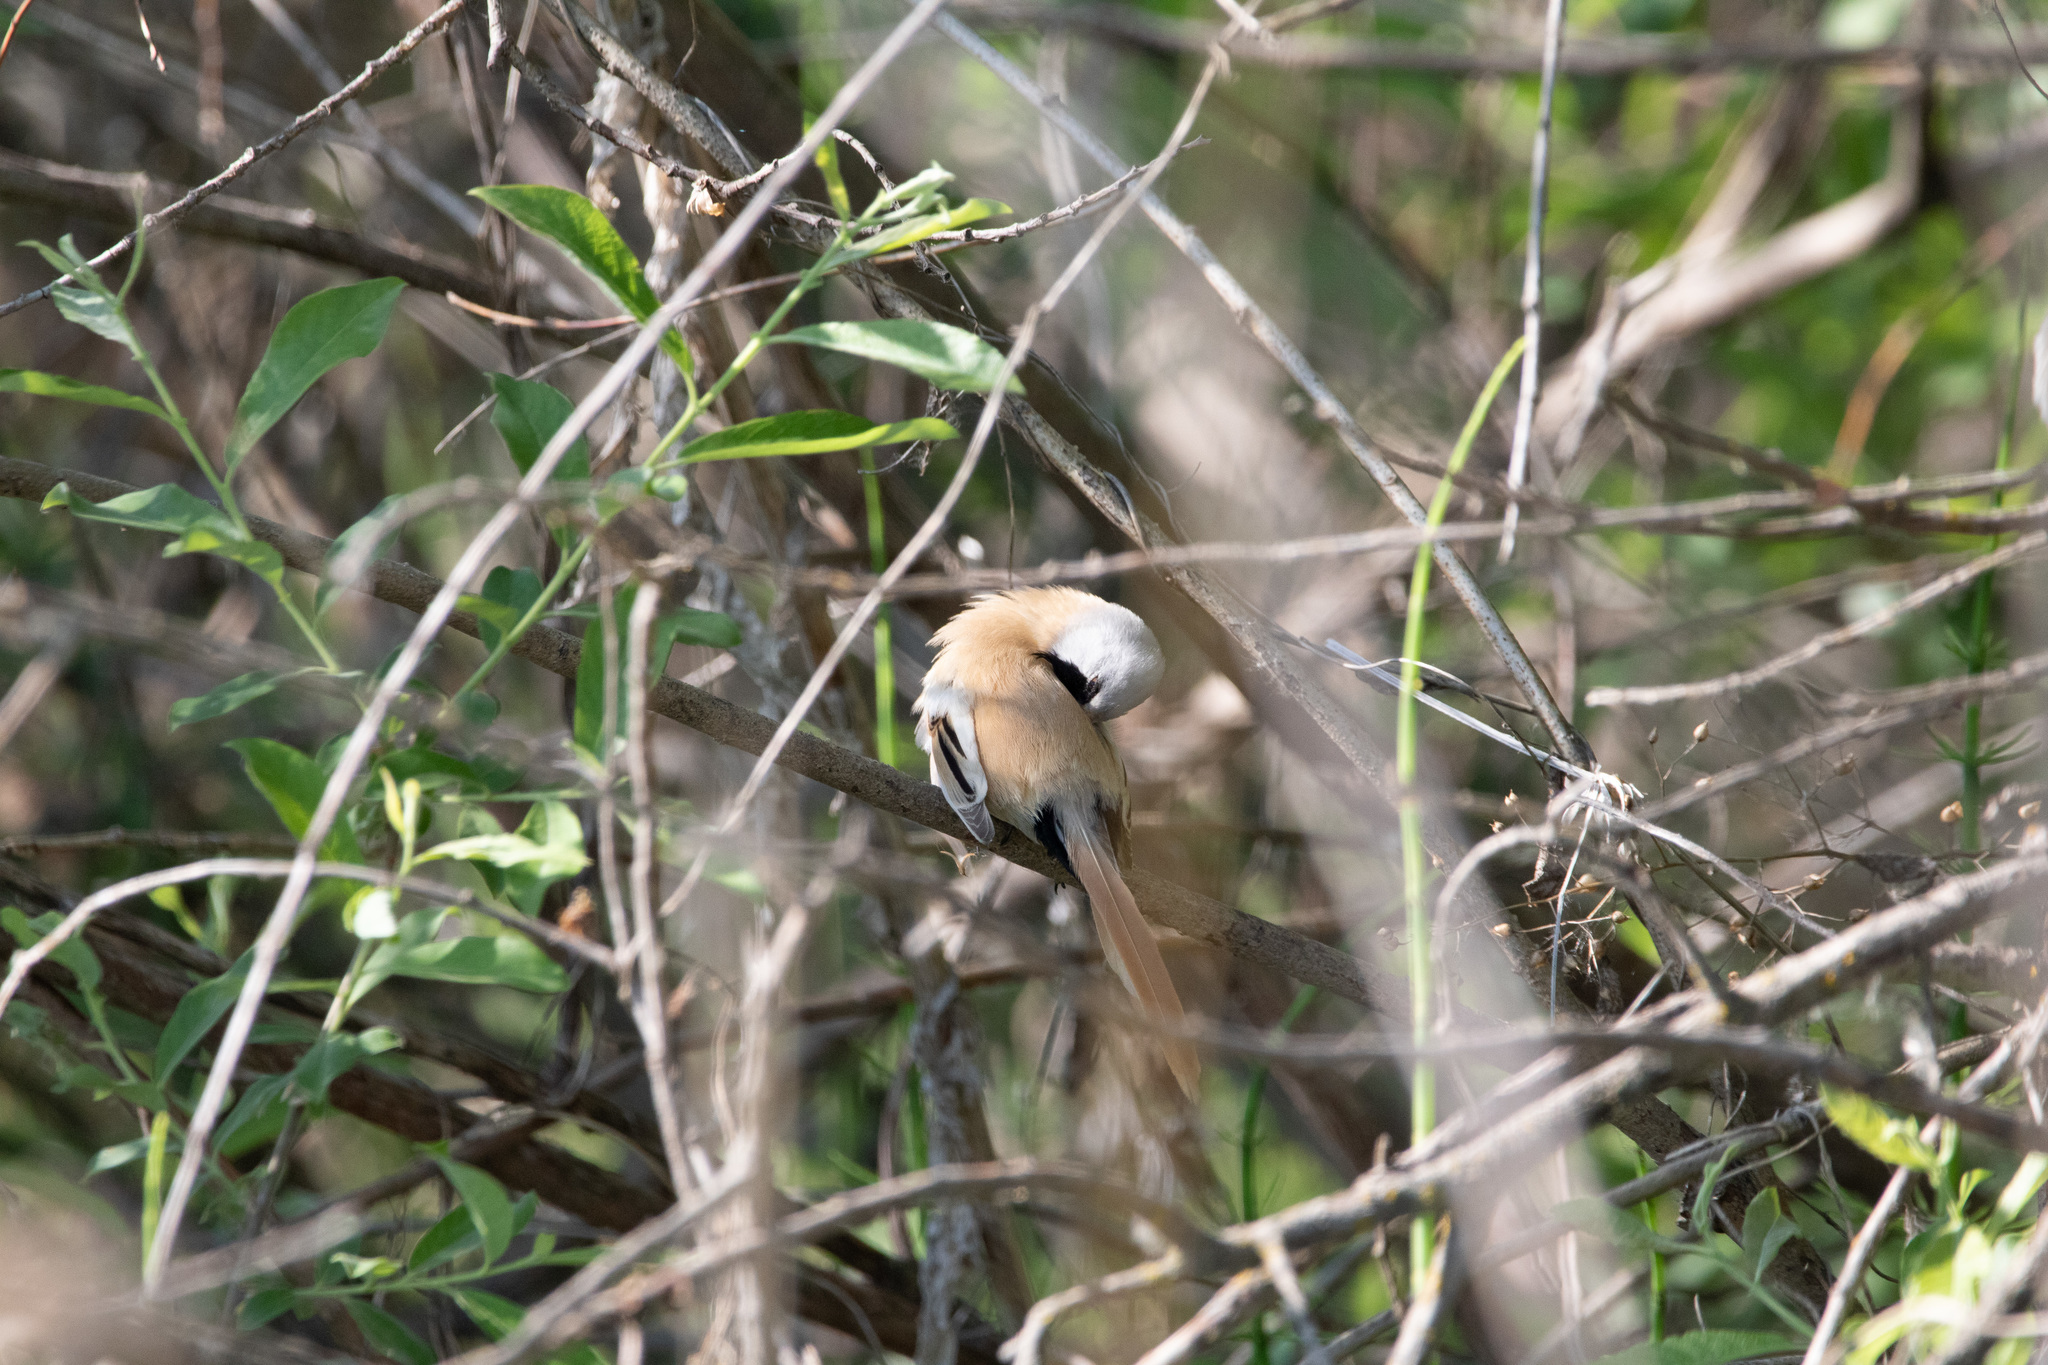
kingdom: Animalia
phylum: Chordata
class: Aves
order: Passeriformes
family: Panuridae
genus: Panurus
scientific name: Panurus biarmicus
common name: Bearded reedling
